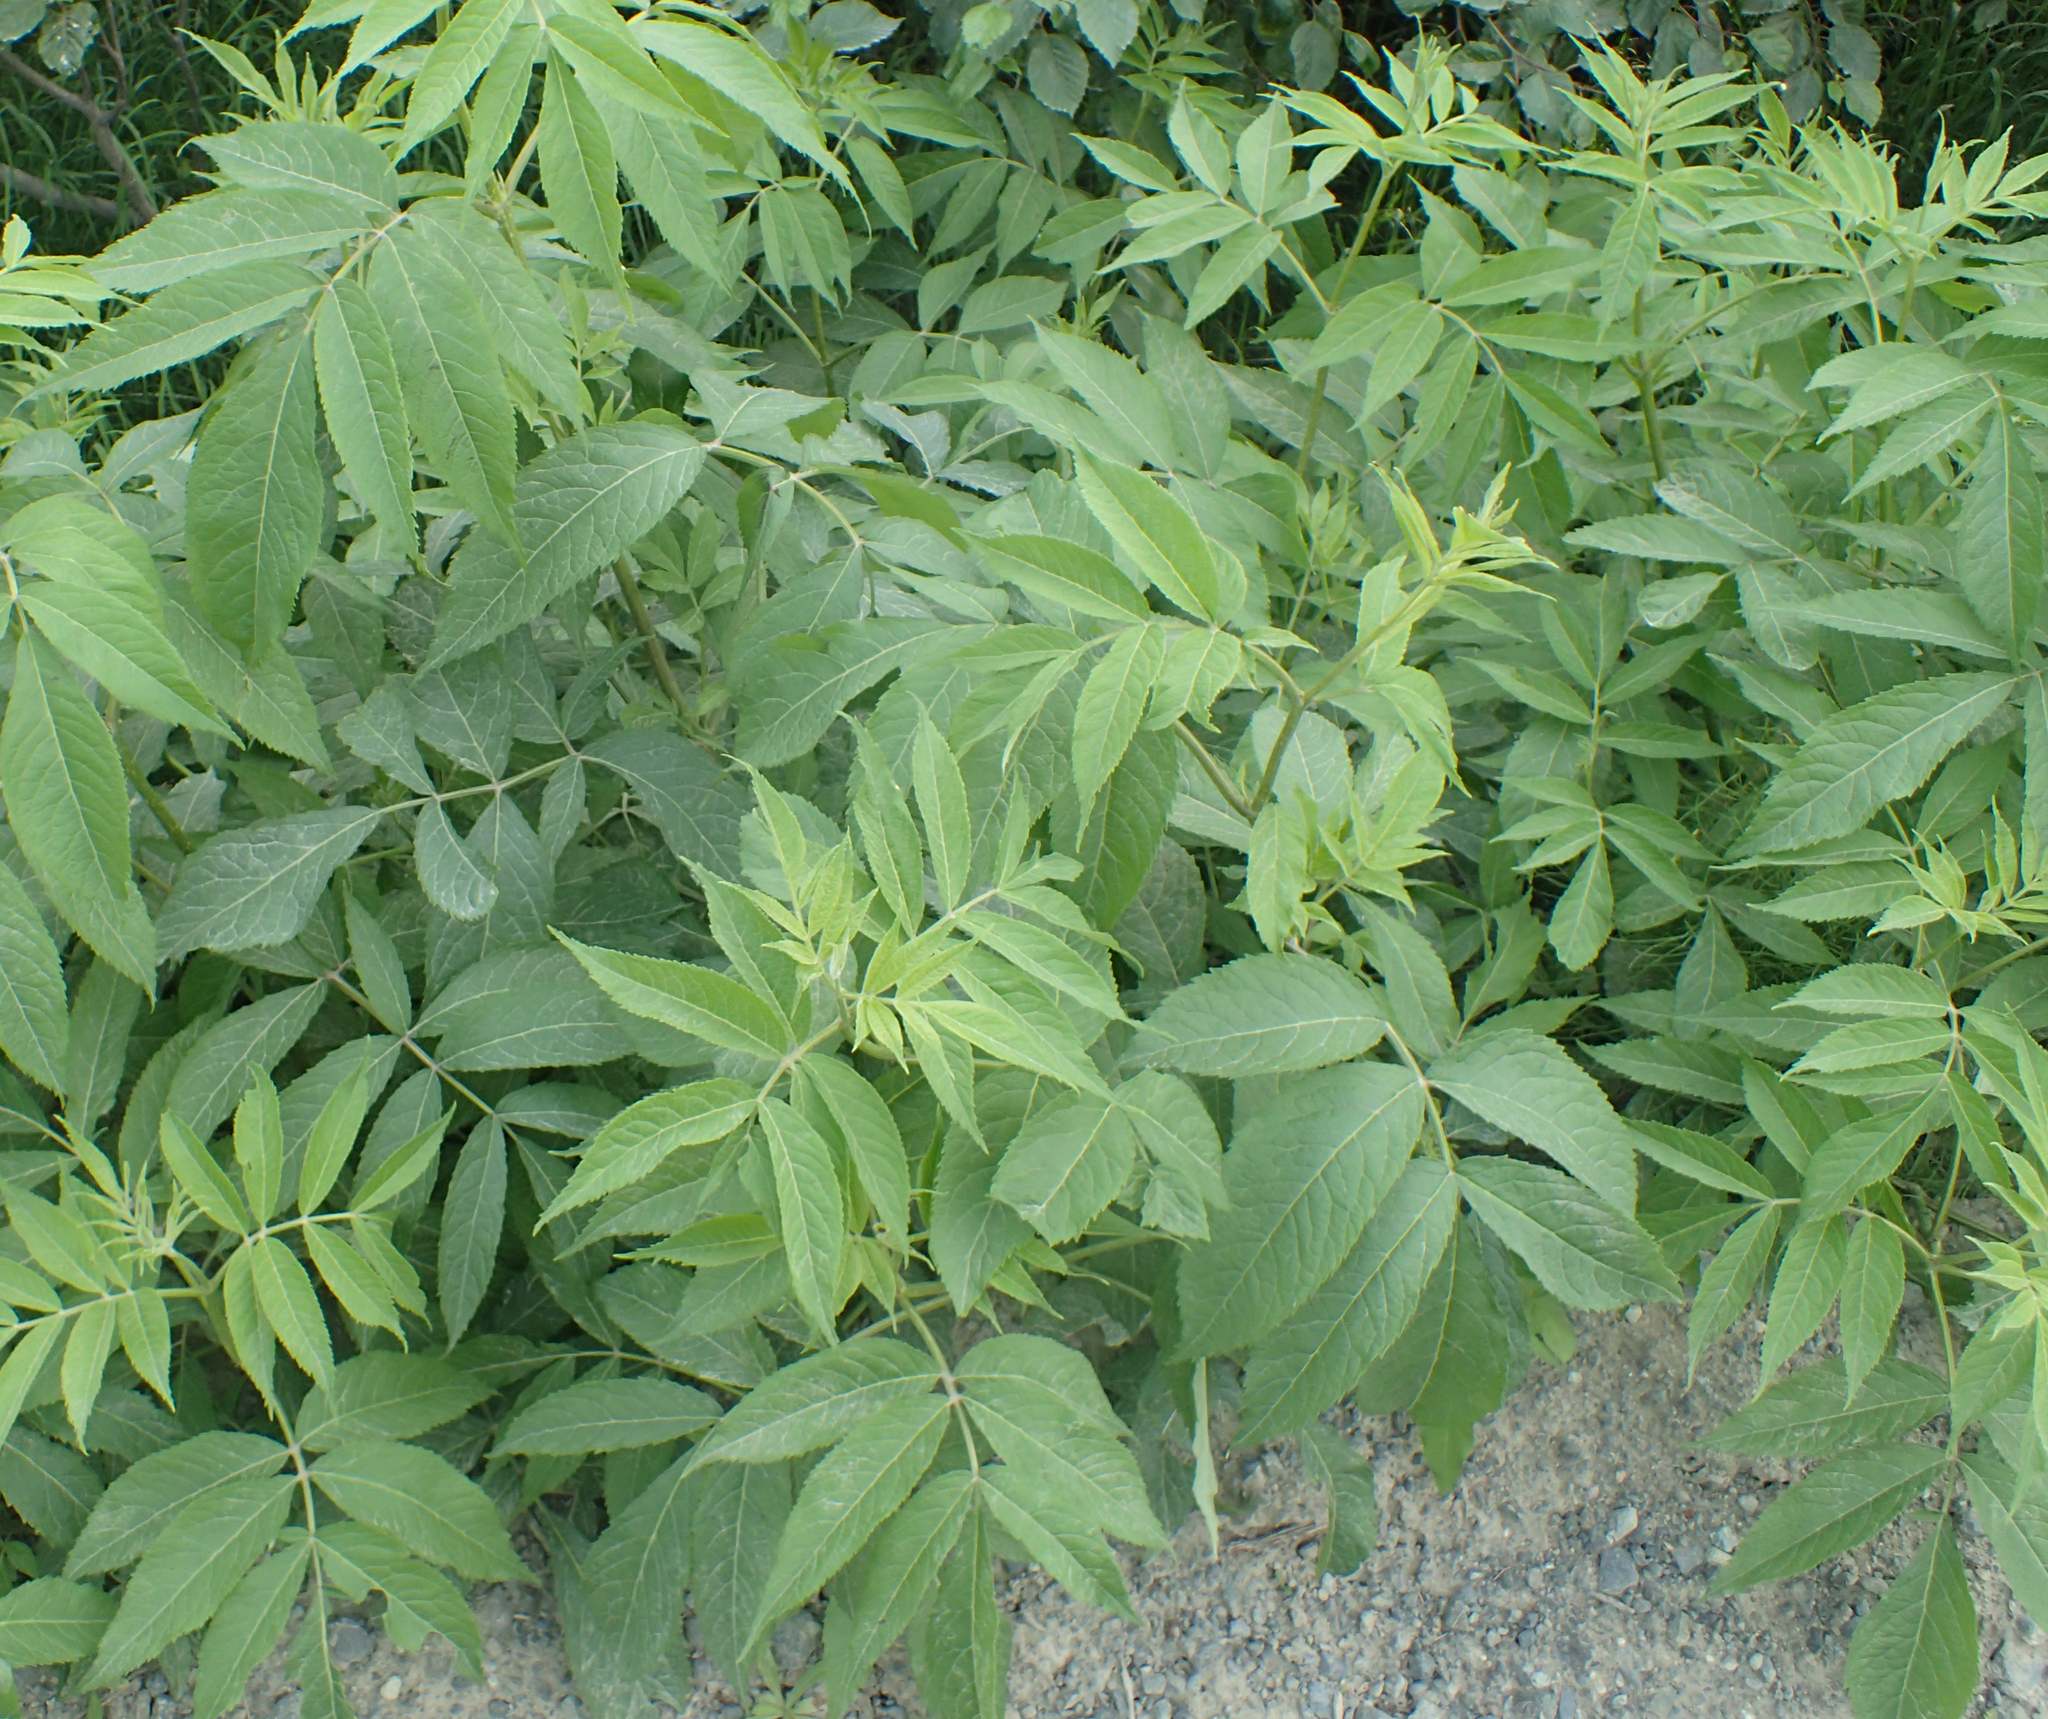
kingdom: Plantae
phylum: Tracheophyta
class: Magnoliopsida
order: Dipsacales
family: Viburnaceae
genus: Sambucus
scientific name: Sambucus racemosa
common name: Red-berried elder
